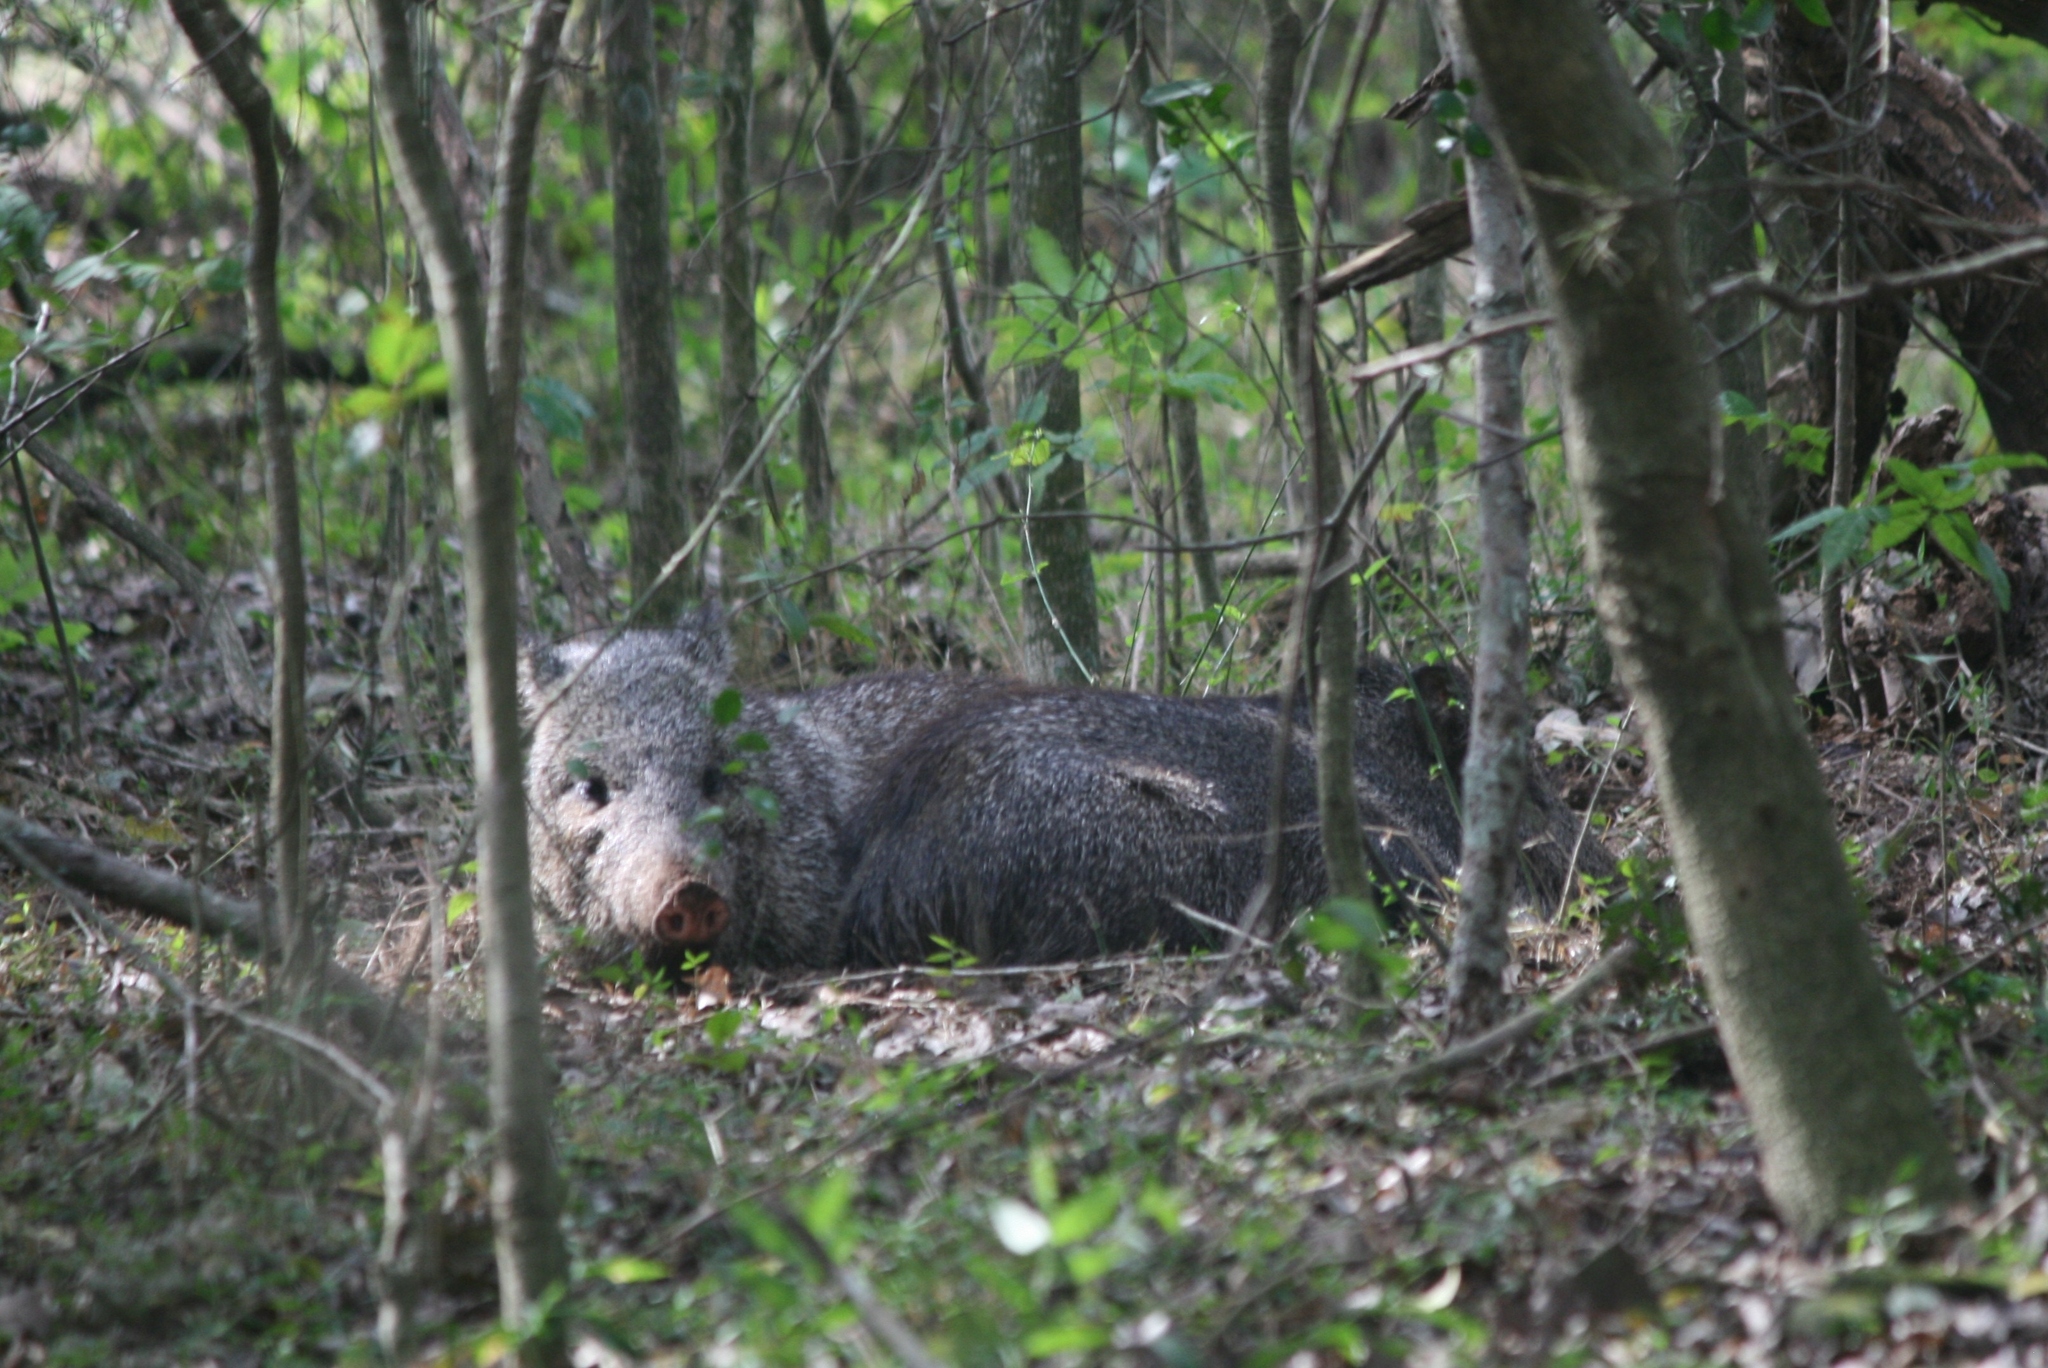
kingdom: Animalia
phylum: Chordata
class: Mammalia
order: Artiodactyla
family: Tayassuidae
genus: Pecari
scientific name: Pecari tajacu
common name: Collared peccary
